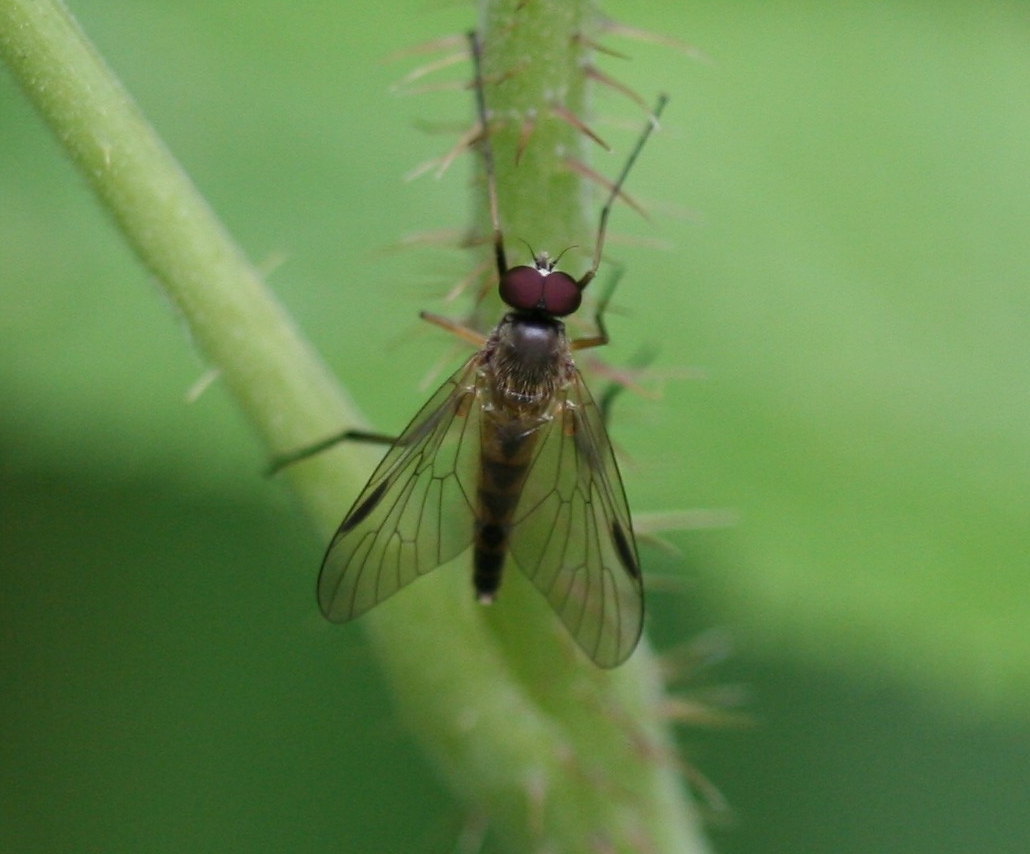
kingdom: Animalia
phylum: Arthropoda
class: Insecta
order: Diptera
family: Rhagionidae
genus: Rhagio
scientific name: Rhagio lineola
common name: Small fleck-winged snipefly
